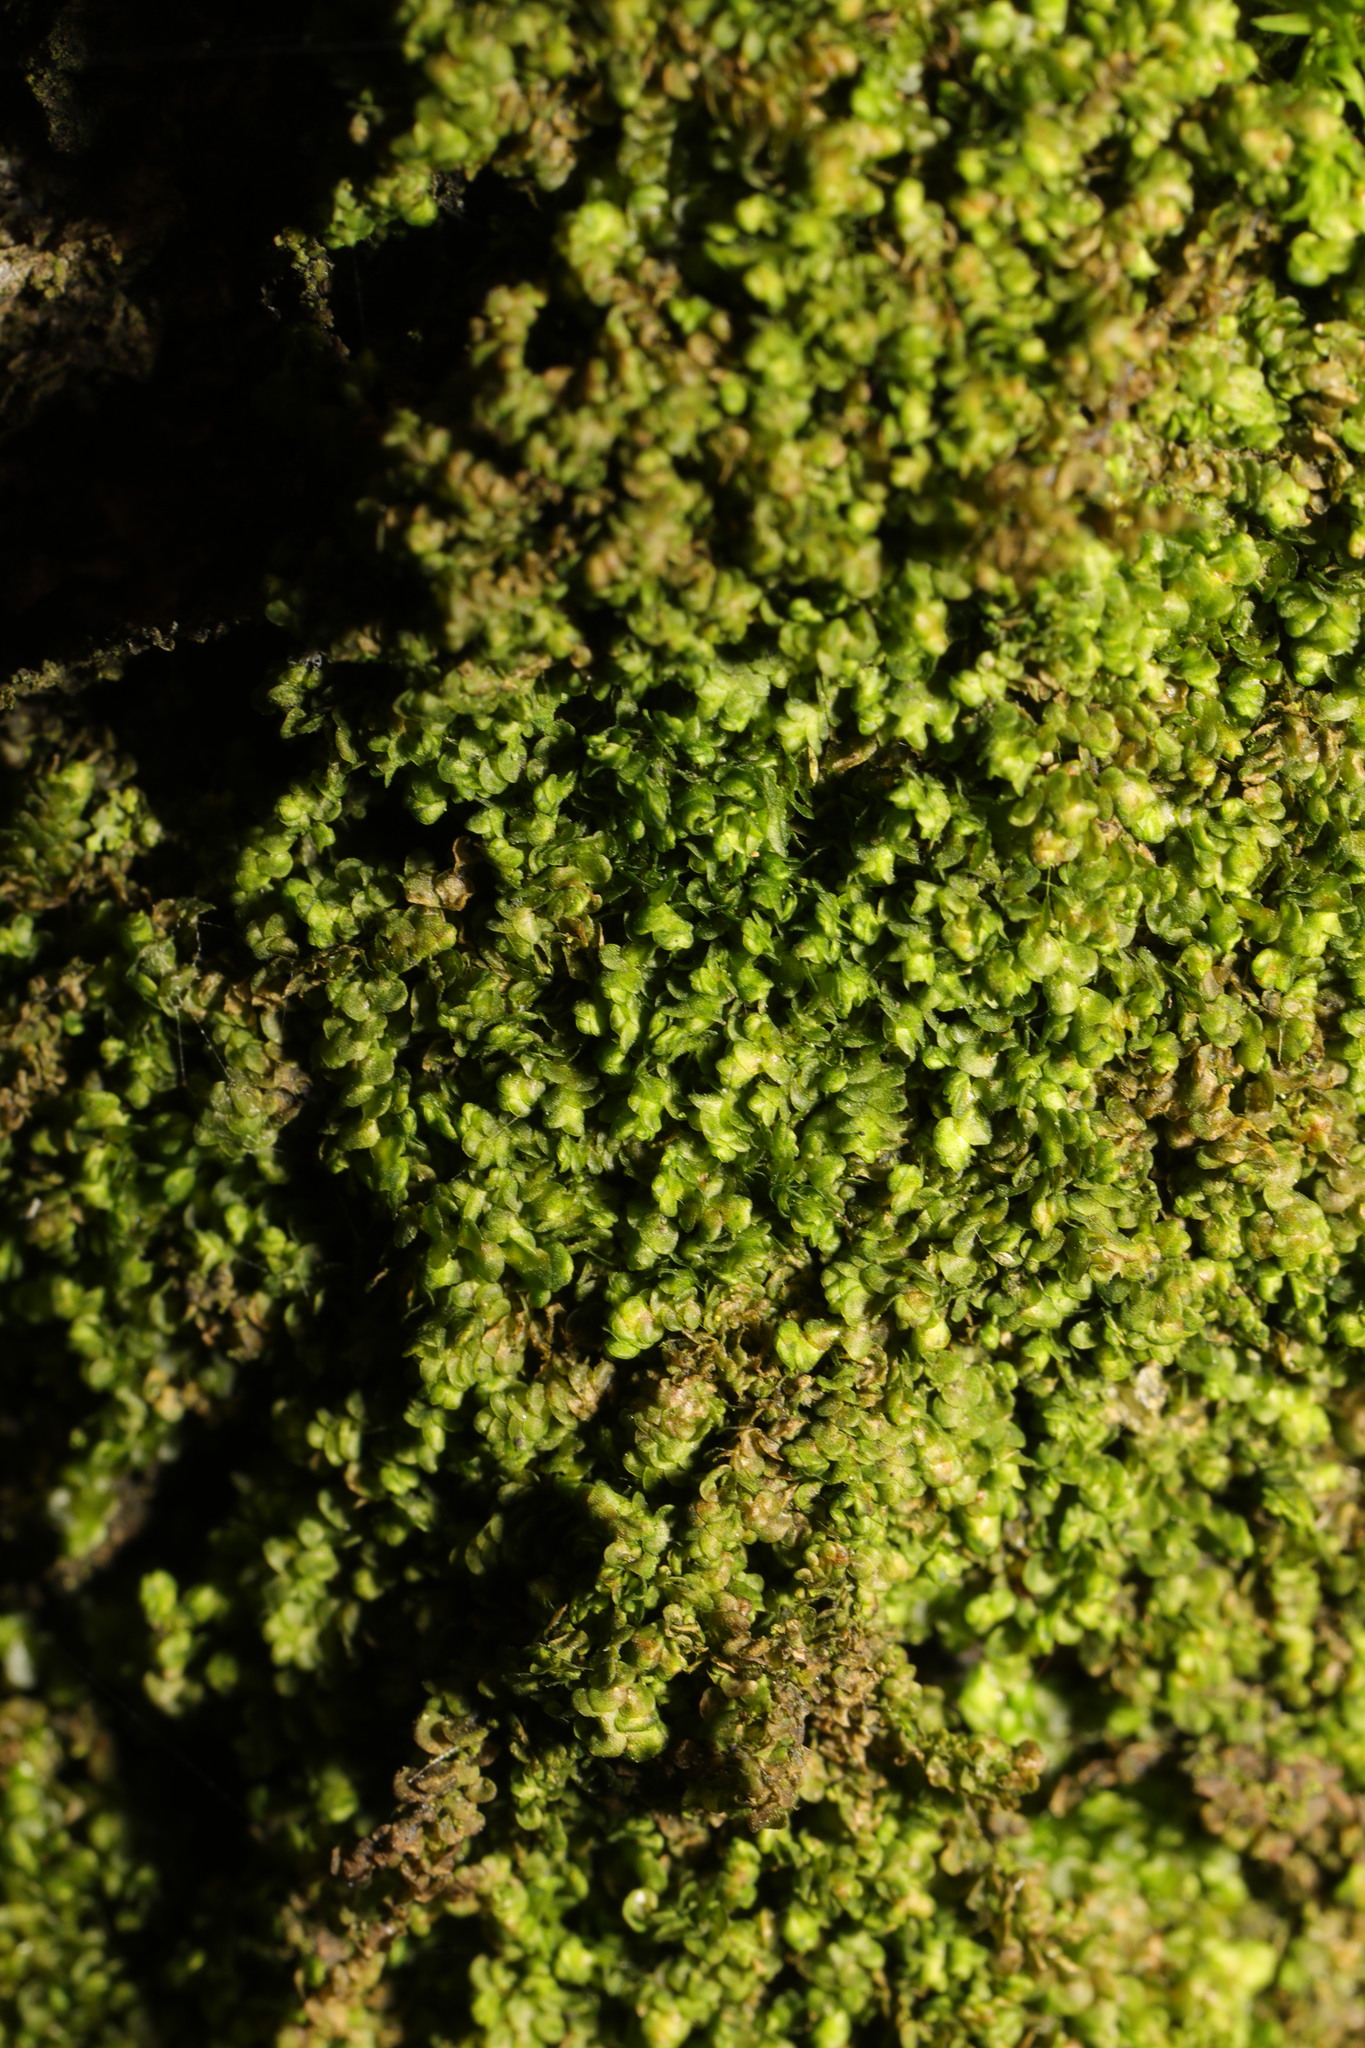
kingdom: Plantae
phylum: Marchantiophyta
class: Jungermanniopsida
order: Porellales
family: Frullaniaceae
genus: Frullania
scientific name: Frullania dilatata
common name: Dilated scalewort
